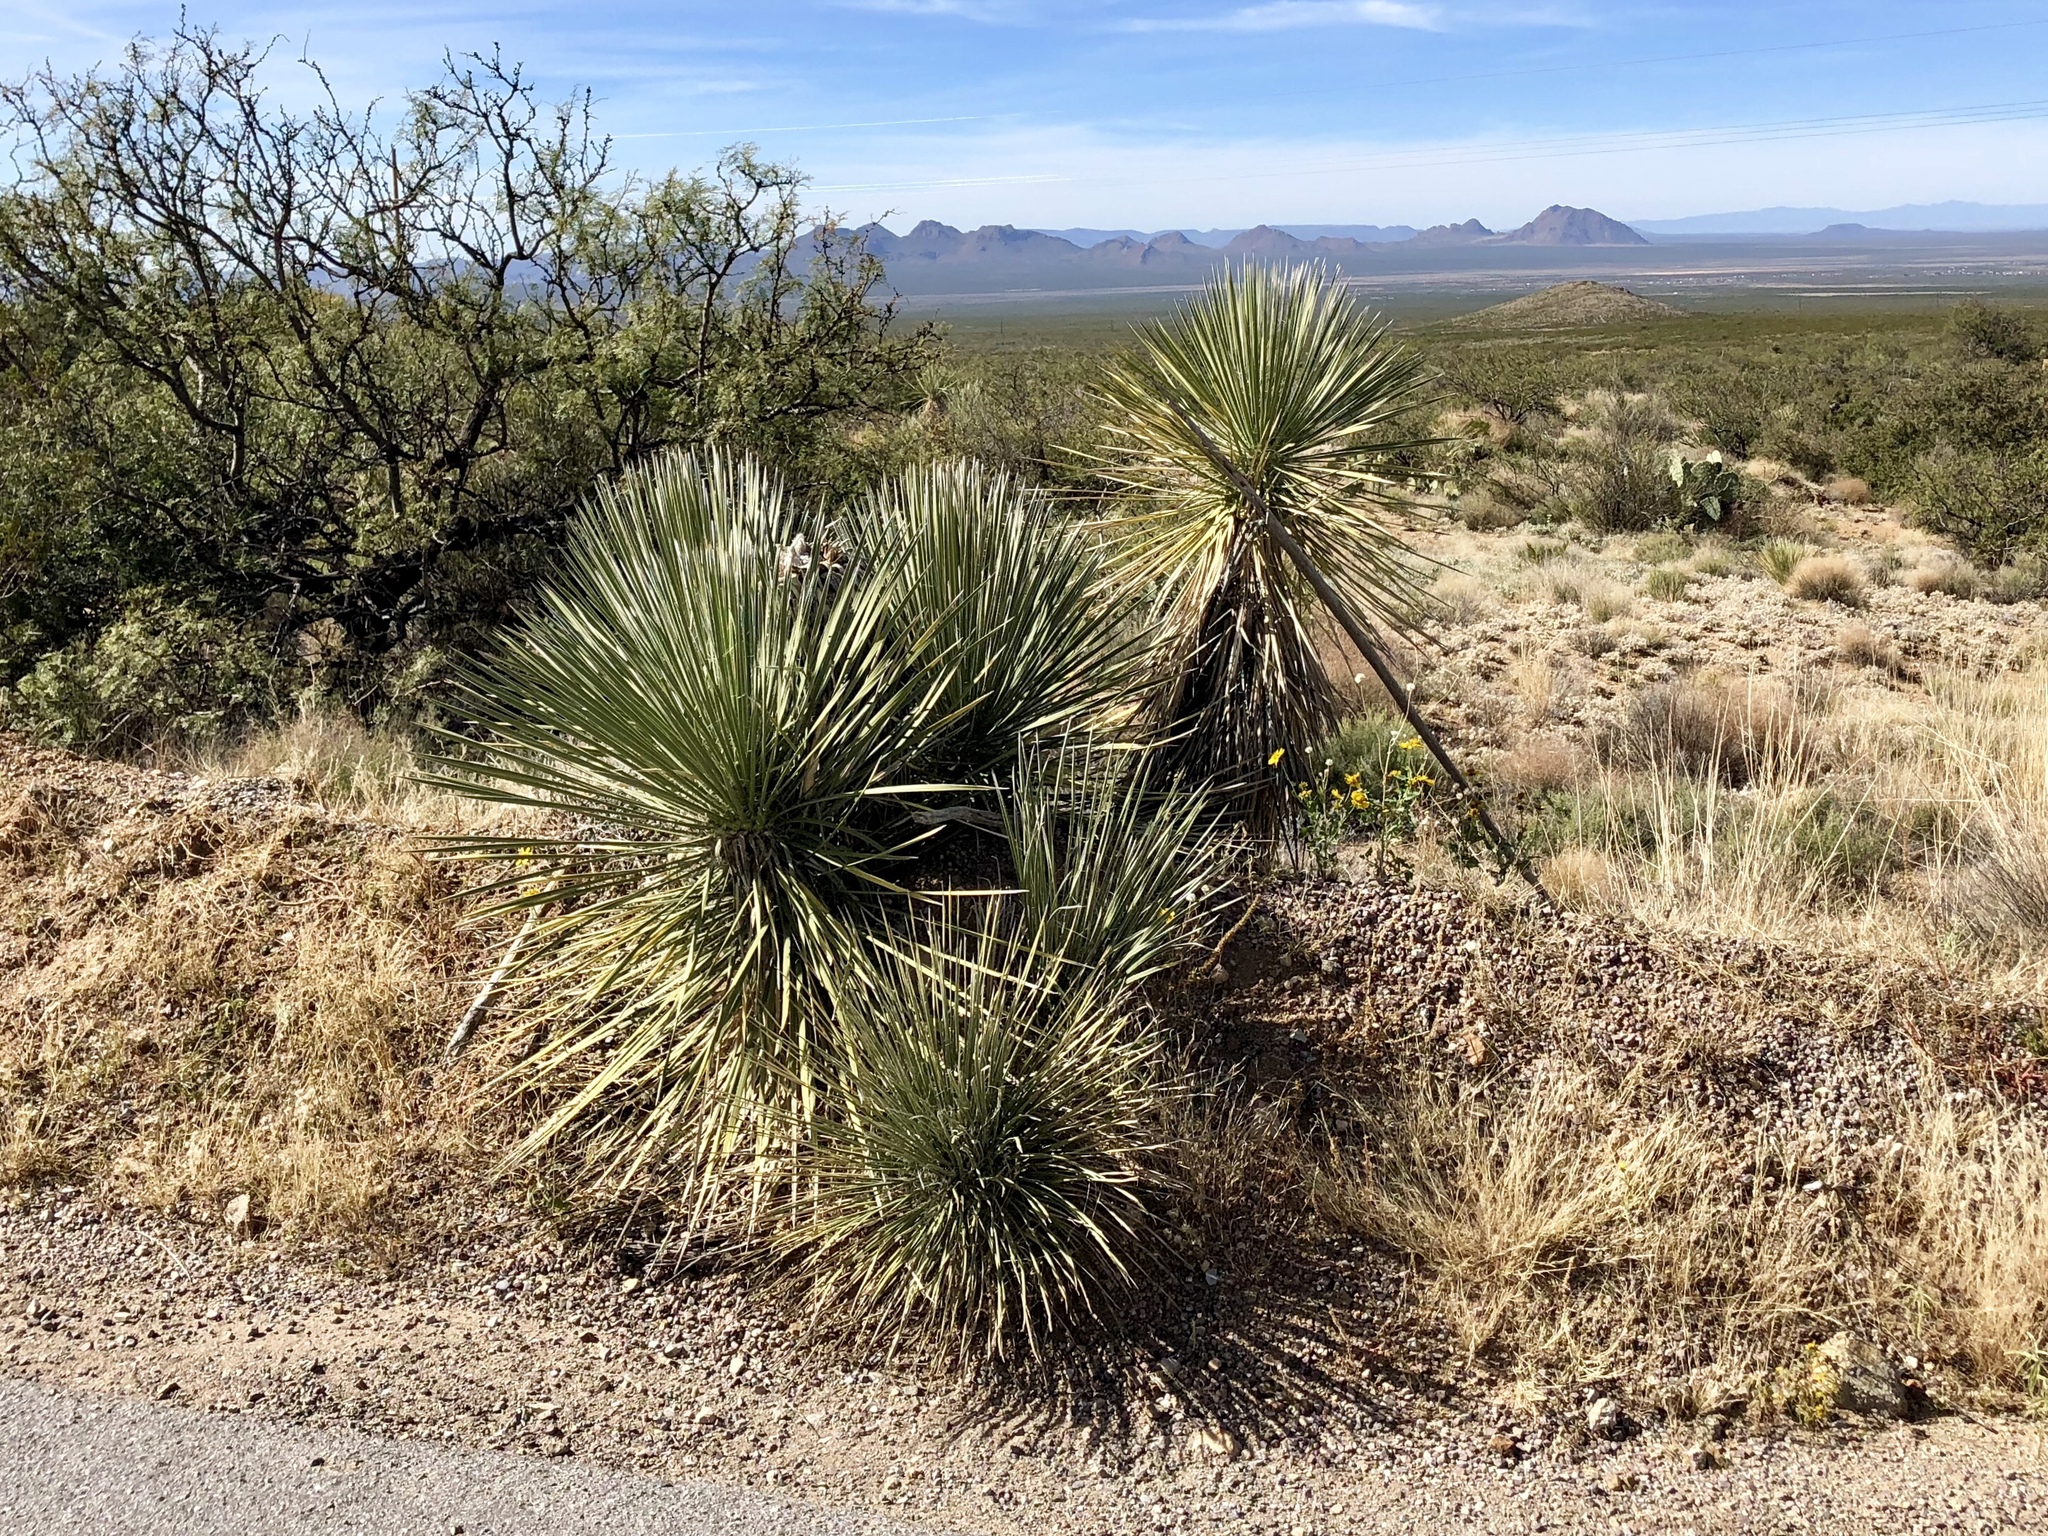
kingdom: Plantae
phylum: Tracheophyta
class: Liliopsida
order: Asparagales
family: Asparagaceae
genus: Yucca
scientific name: Yucca elata
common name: Palmella
